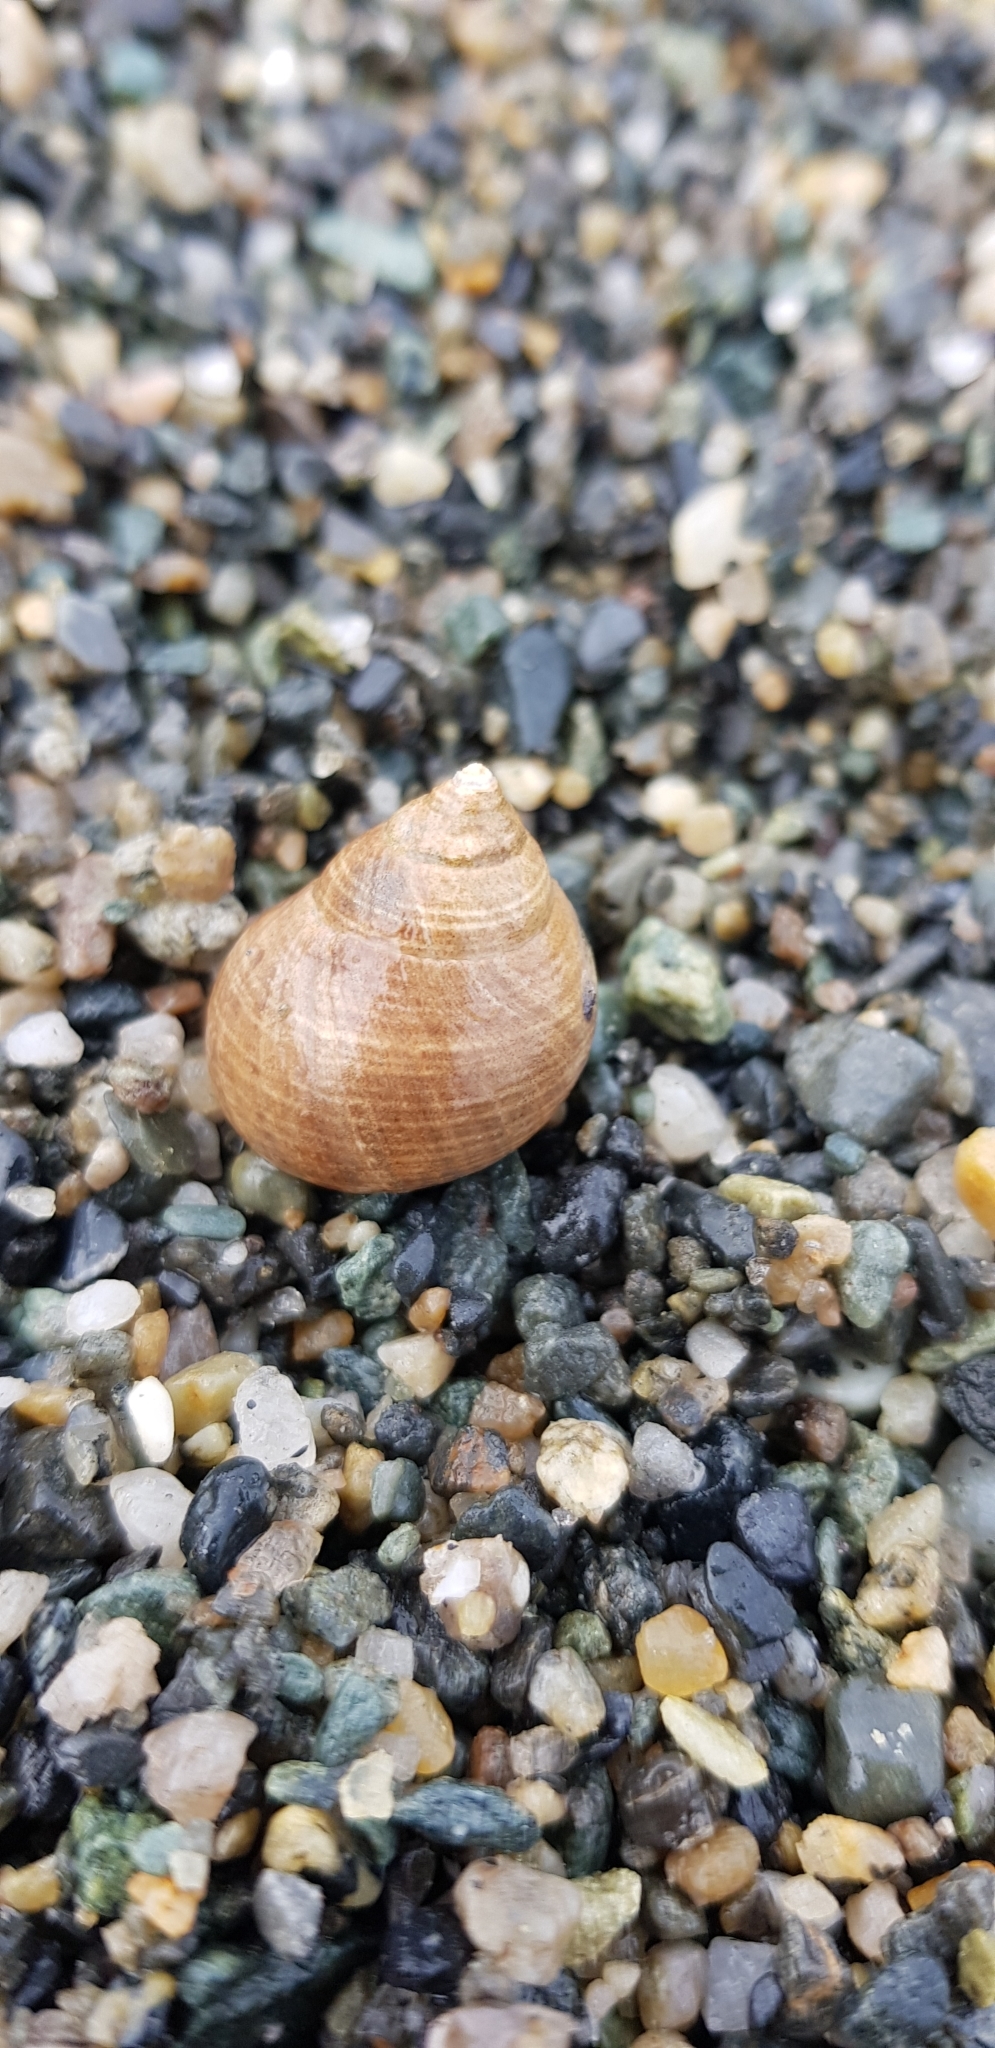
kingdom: Animalia
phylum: Mollusca
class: Gastropoda
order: Littorinimorpha
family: Littorinidae
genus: Littorina
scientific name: Littorina littorea
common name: Common periwinkle
